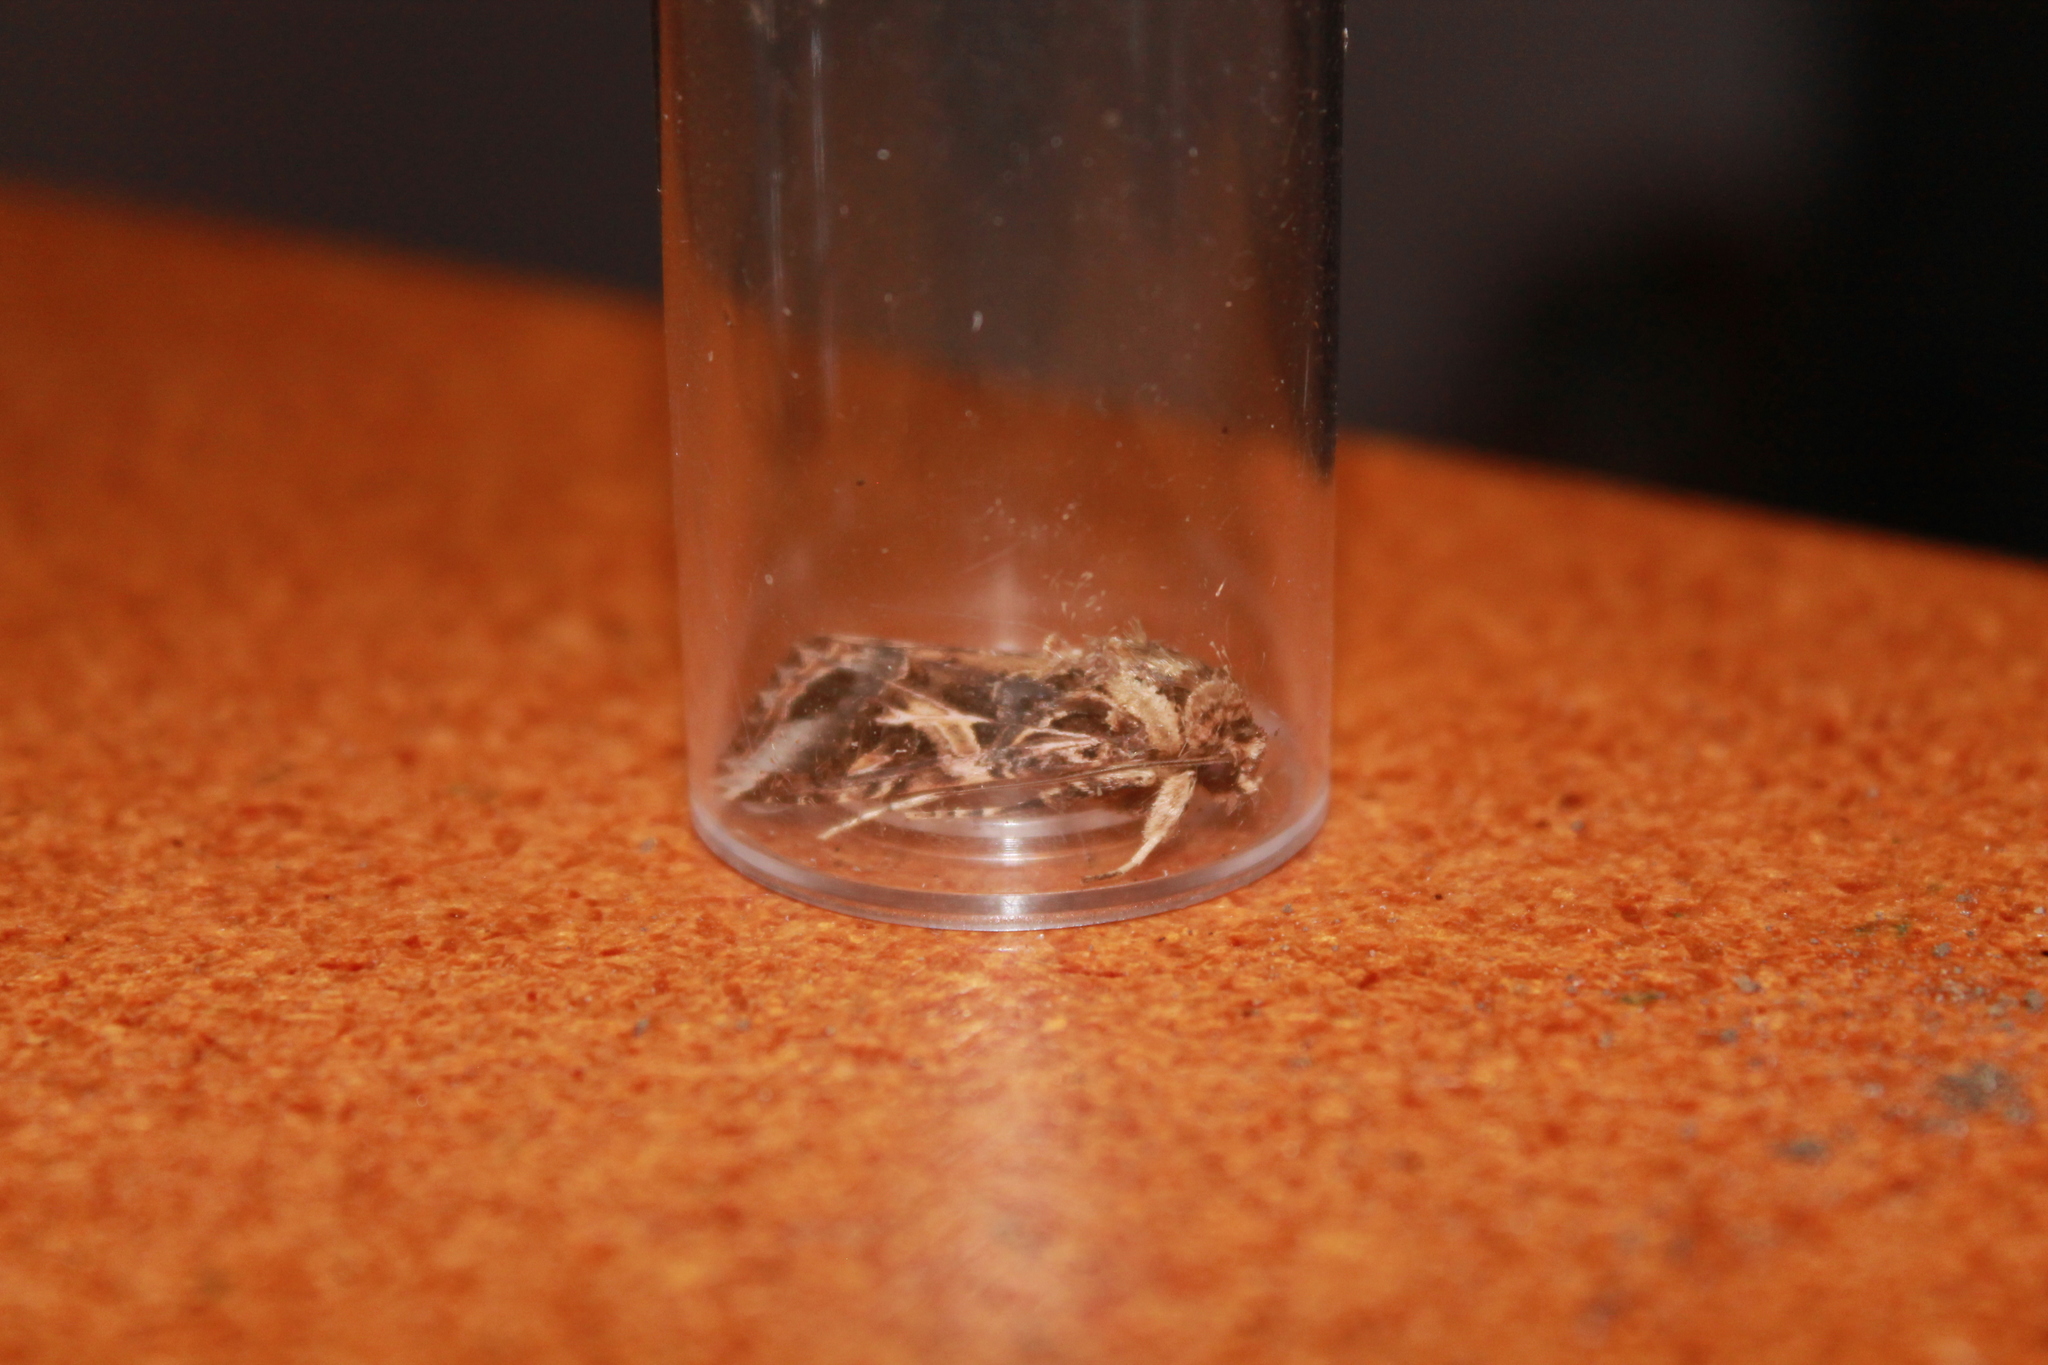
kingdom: Animalia
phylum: Arthropoda
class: Insecta
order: Lepidoptera
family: Noctuidae
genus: Spodoptera
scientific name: Spodoptera litura
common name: Asian cotton leafworm
